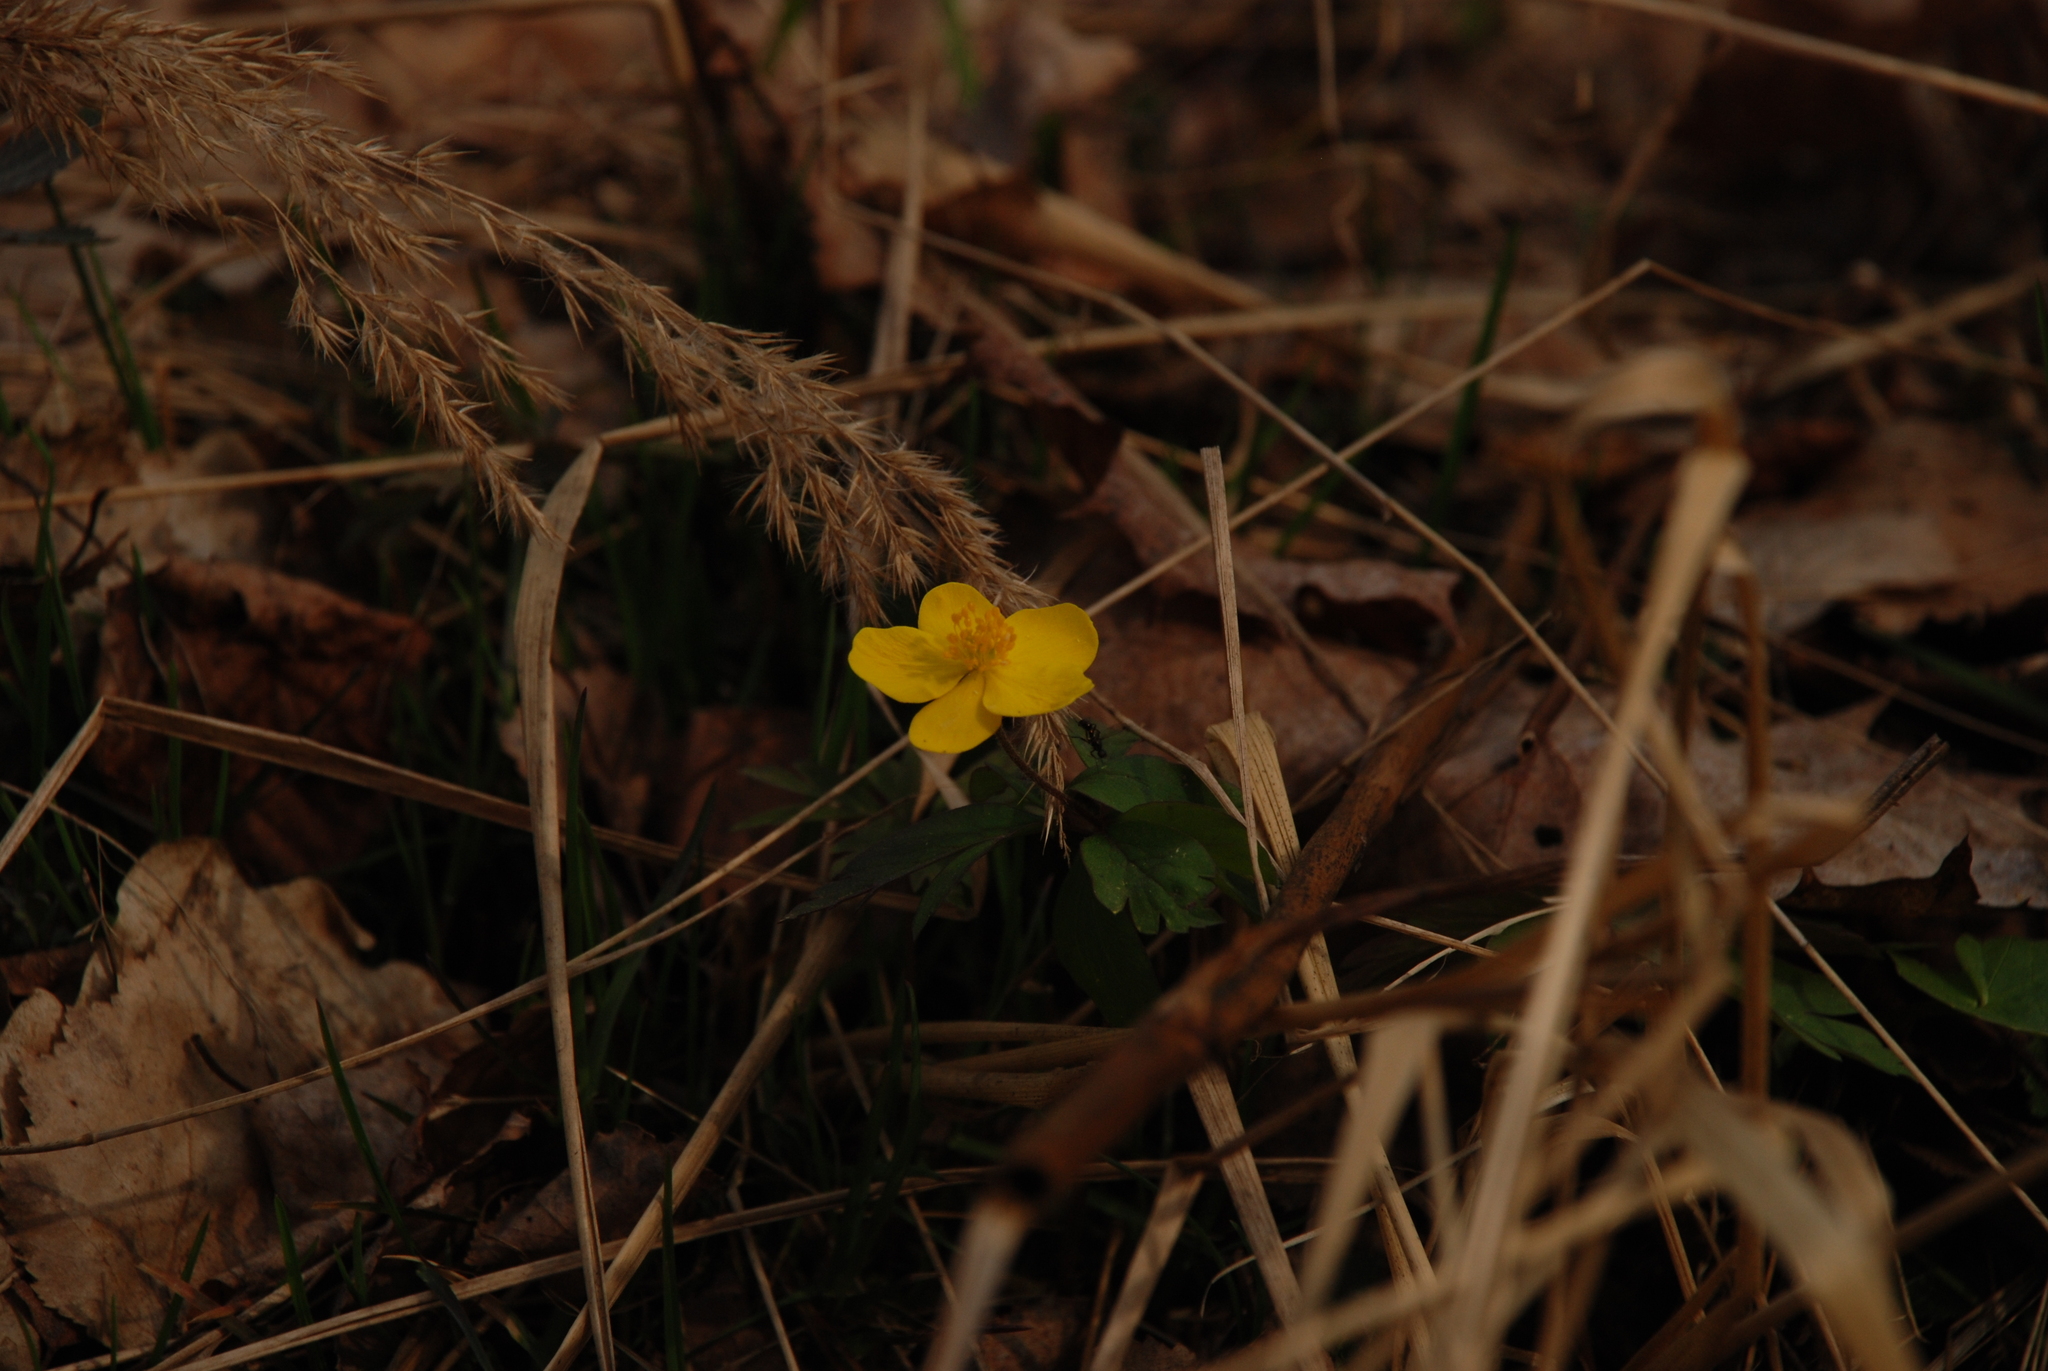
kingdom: Plantae
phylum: Tracheophyta
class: Magnoliopsida
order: Ranunculales
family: Ranunculaceae
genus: Anemone
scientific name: Anemone ranunculoides
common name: Yellow anemone
